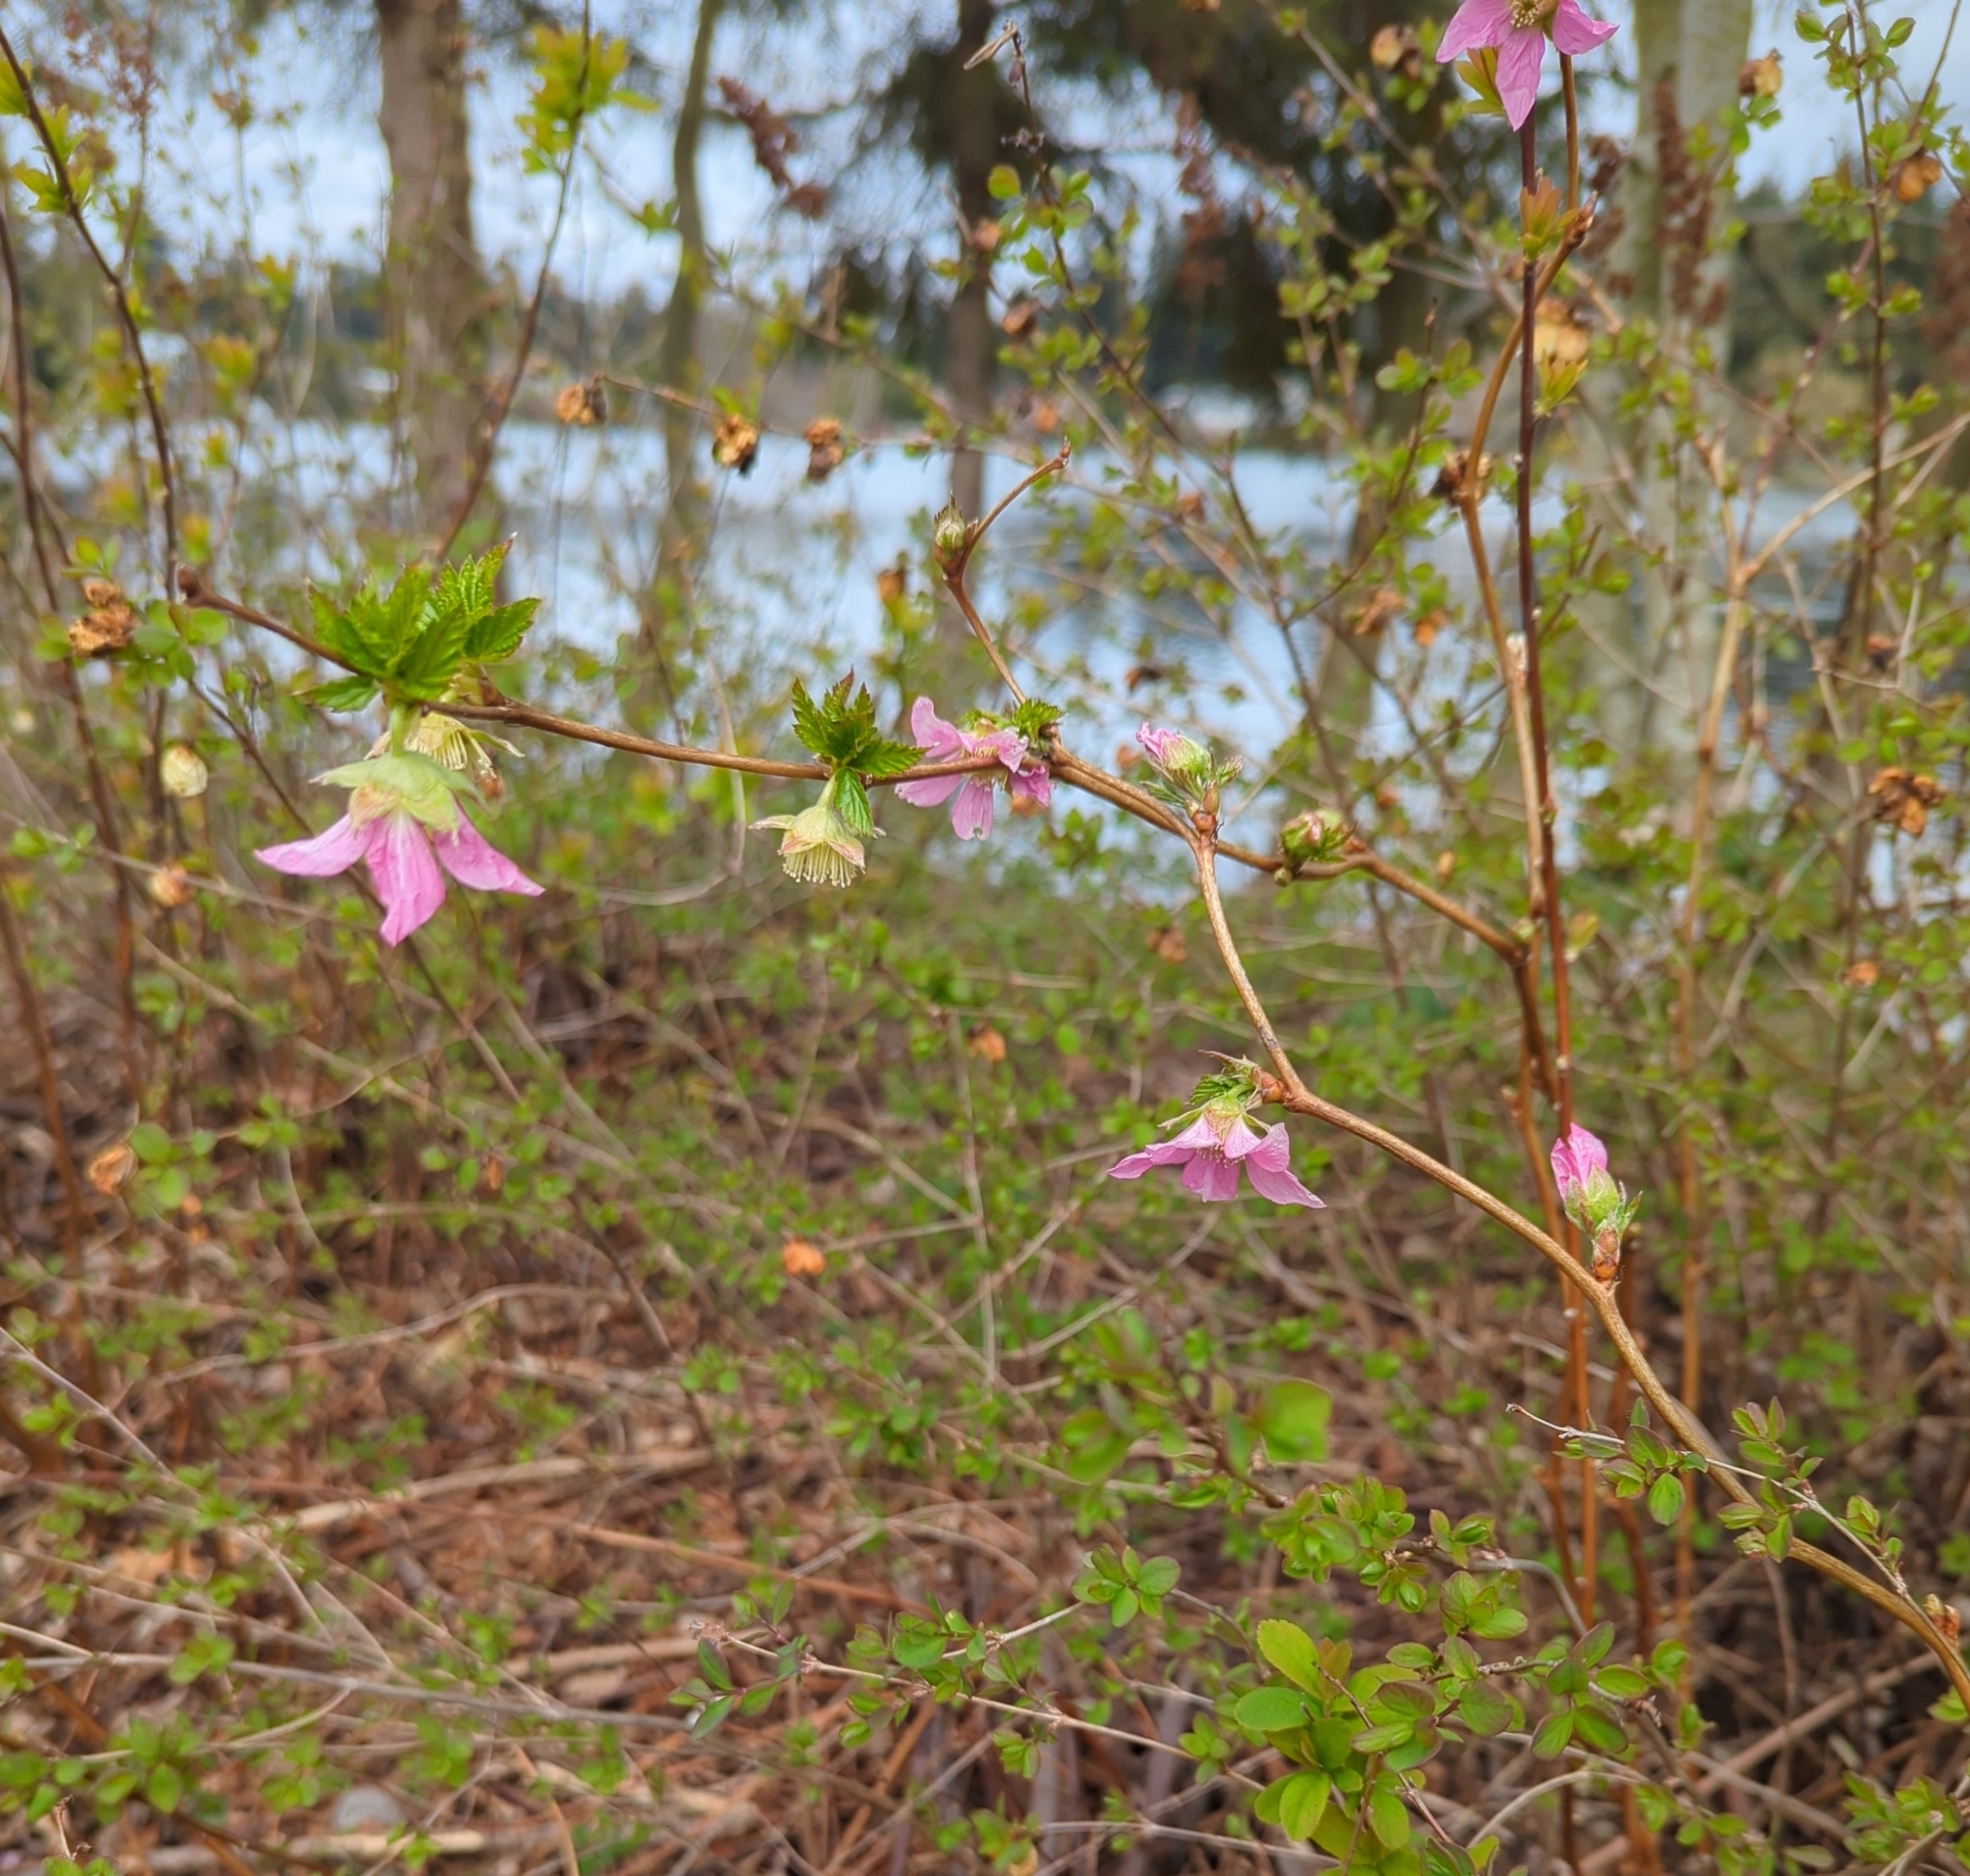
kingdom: Plantae
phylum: Tracheophyta
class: Magnoliopsida
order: Rosales
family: Rosaceae
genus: Rubus
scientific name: Rubus spectabilis
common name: Salmonberry
